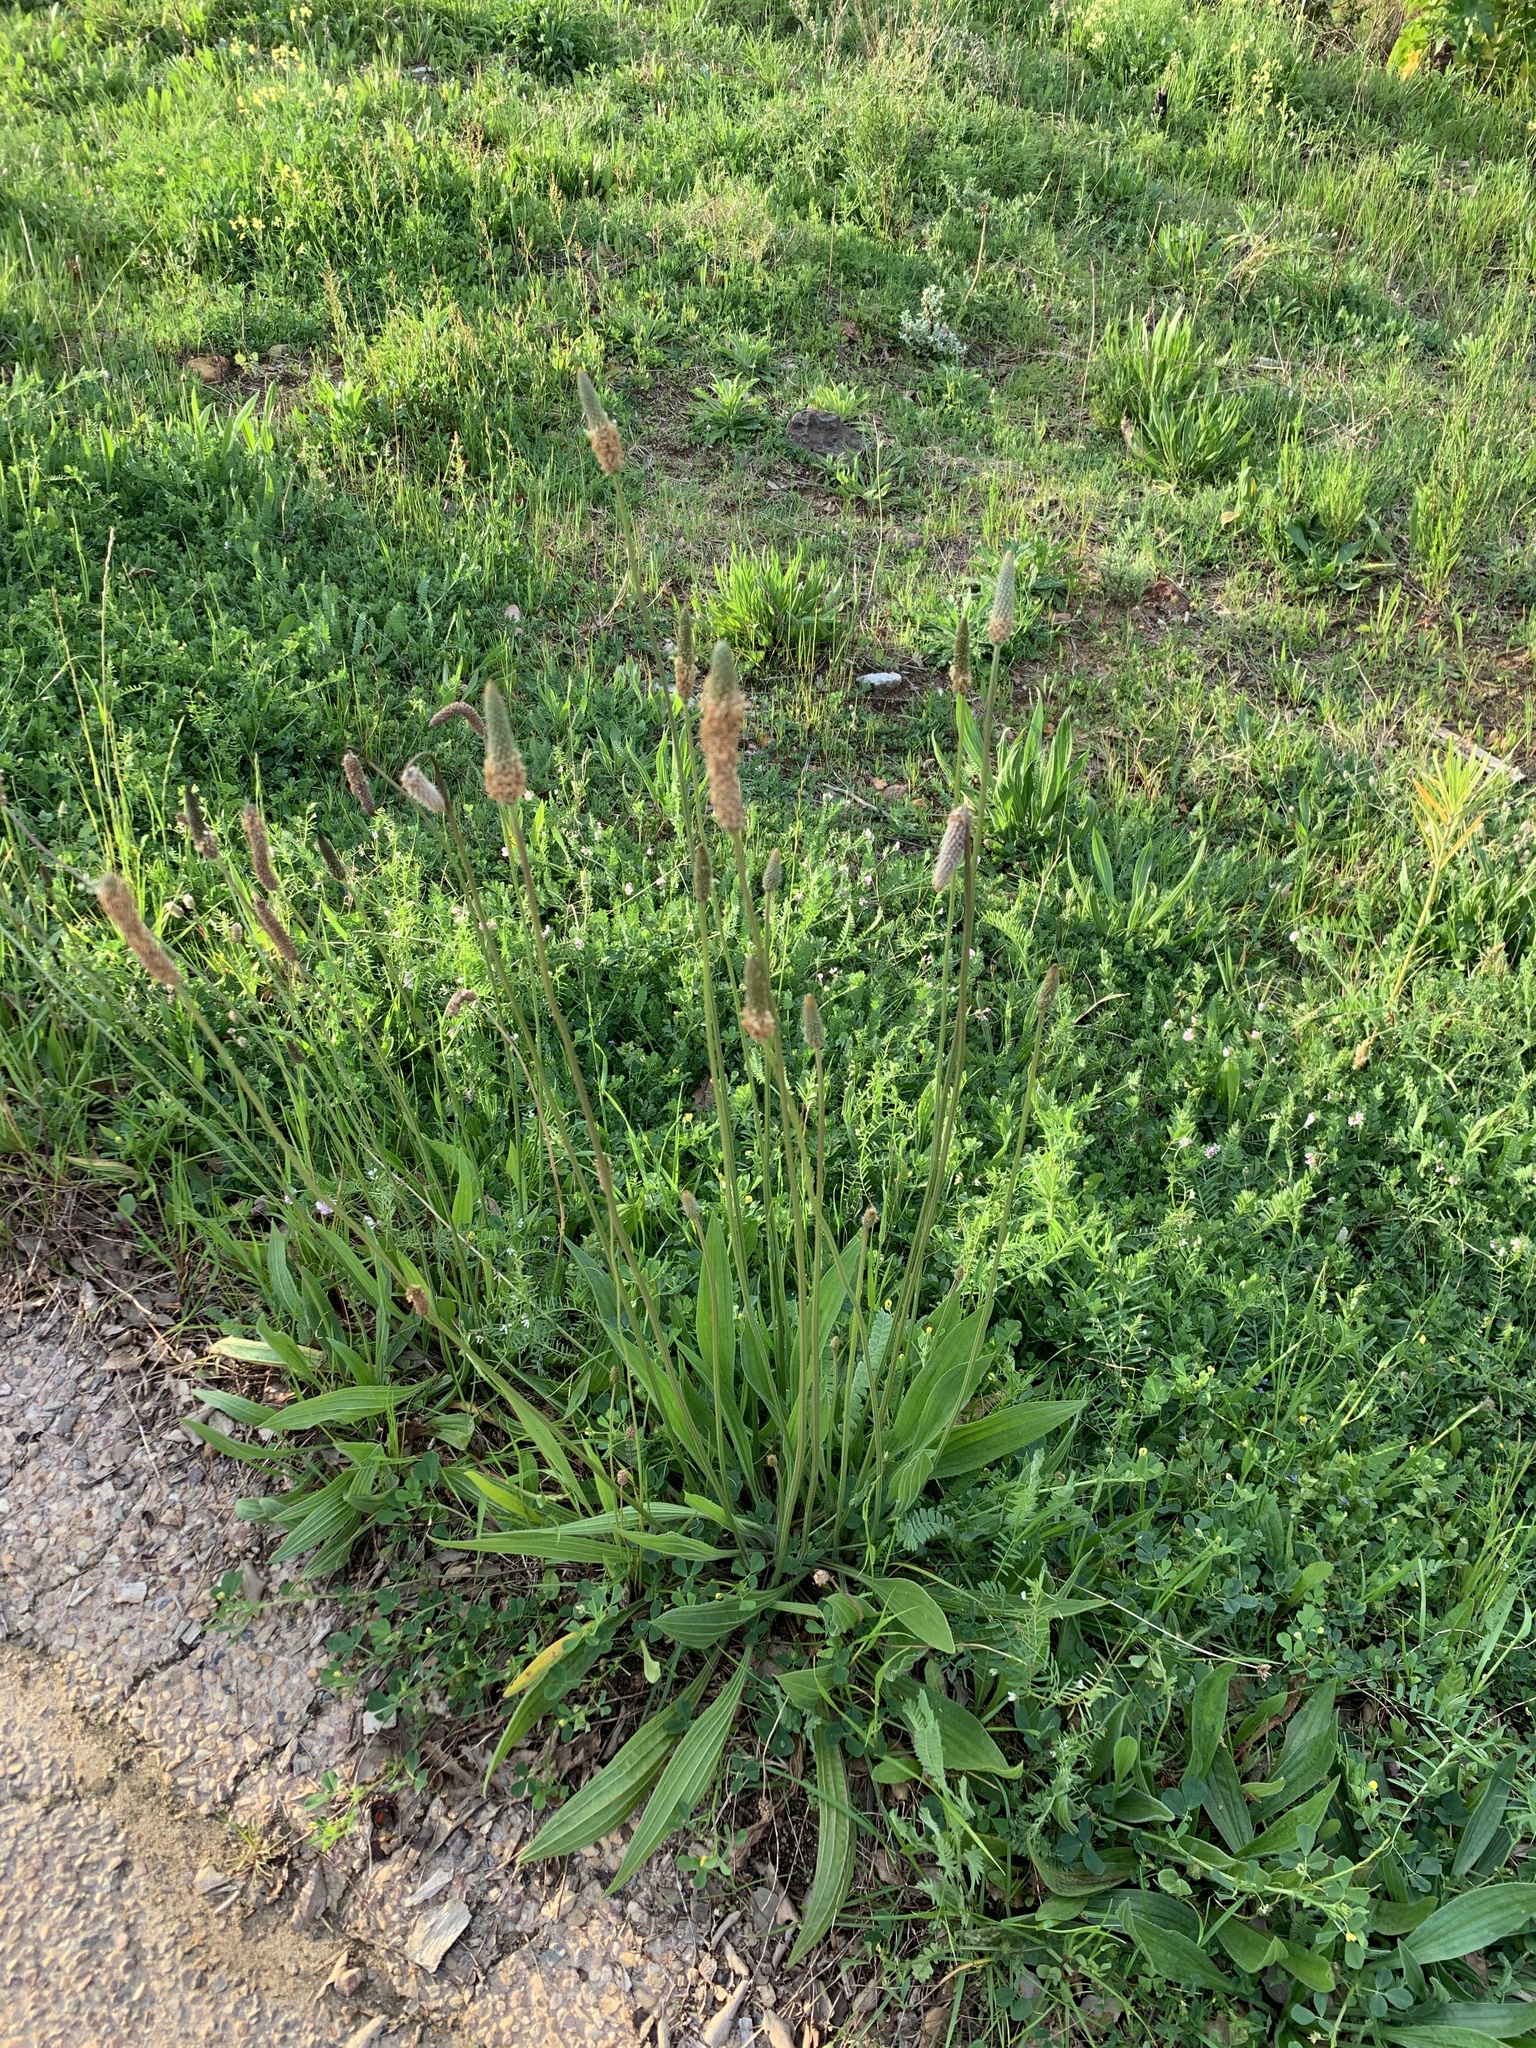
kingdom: Plantae
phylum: Tracheophyta
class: Magnoliopsida
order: Lamiales
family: Plantaginaceae
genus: Plantago
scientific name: Plantago lanceolata
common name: Ribwort plantain
